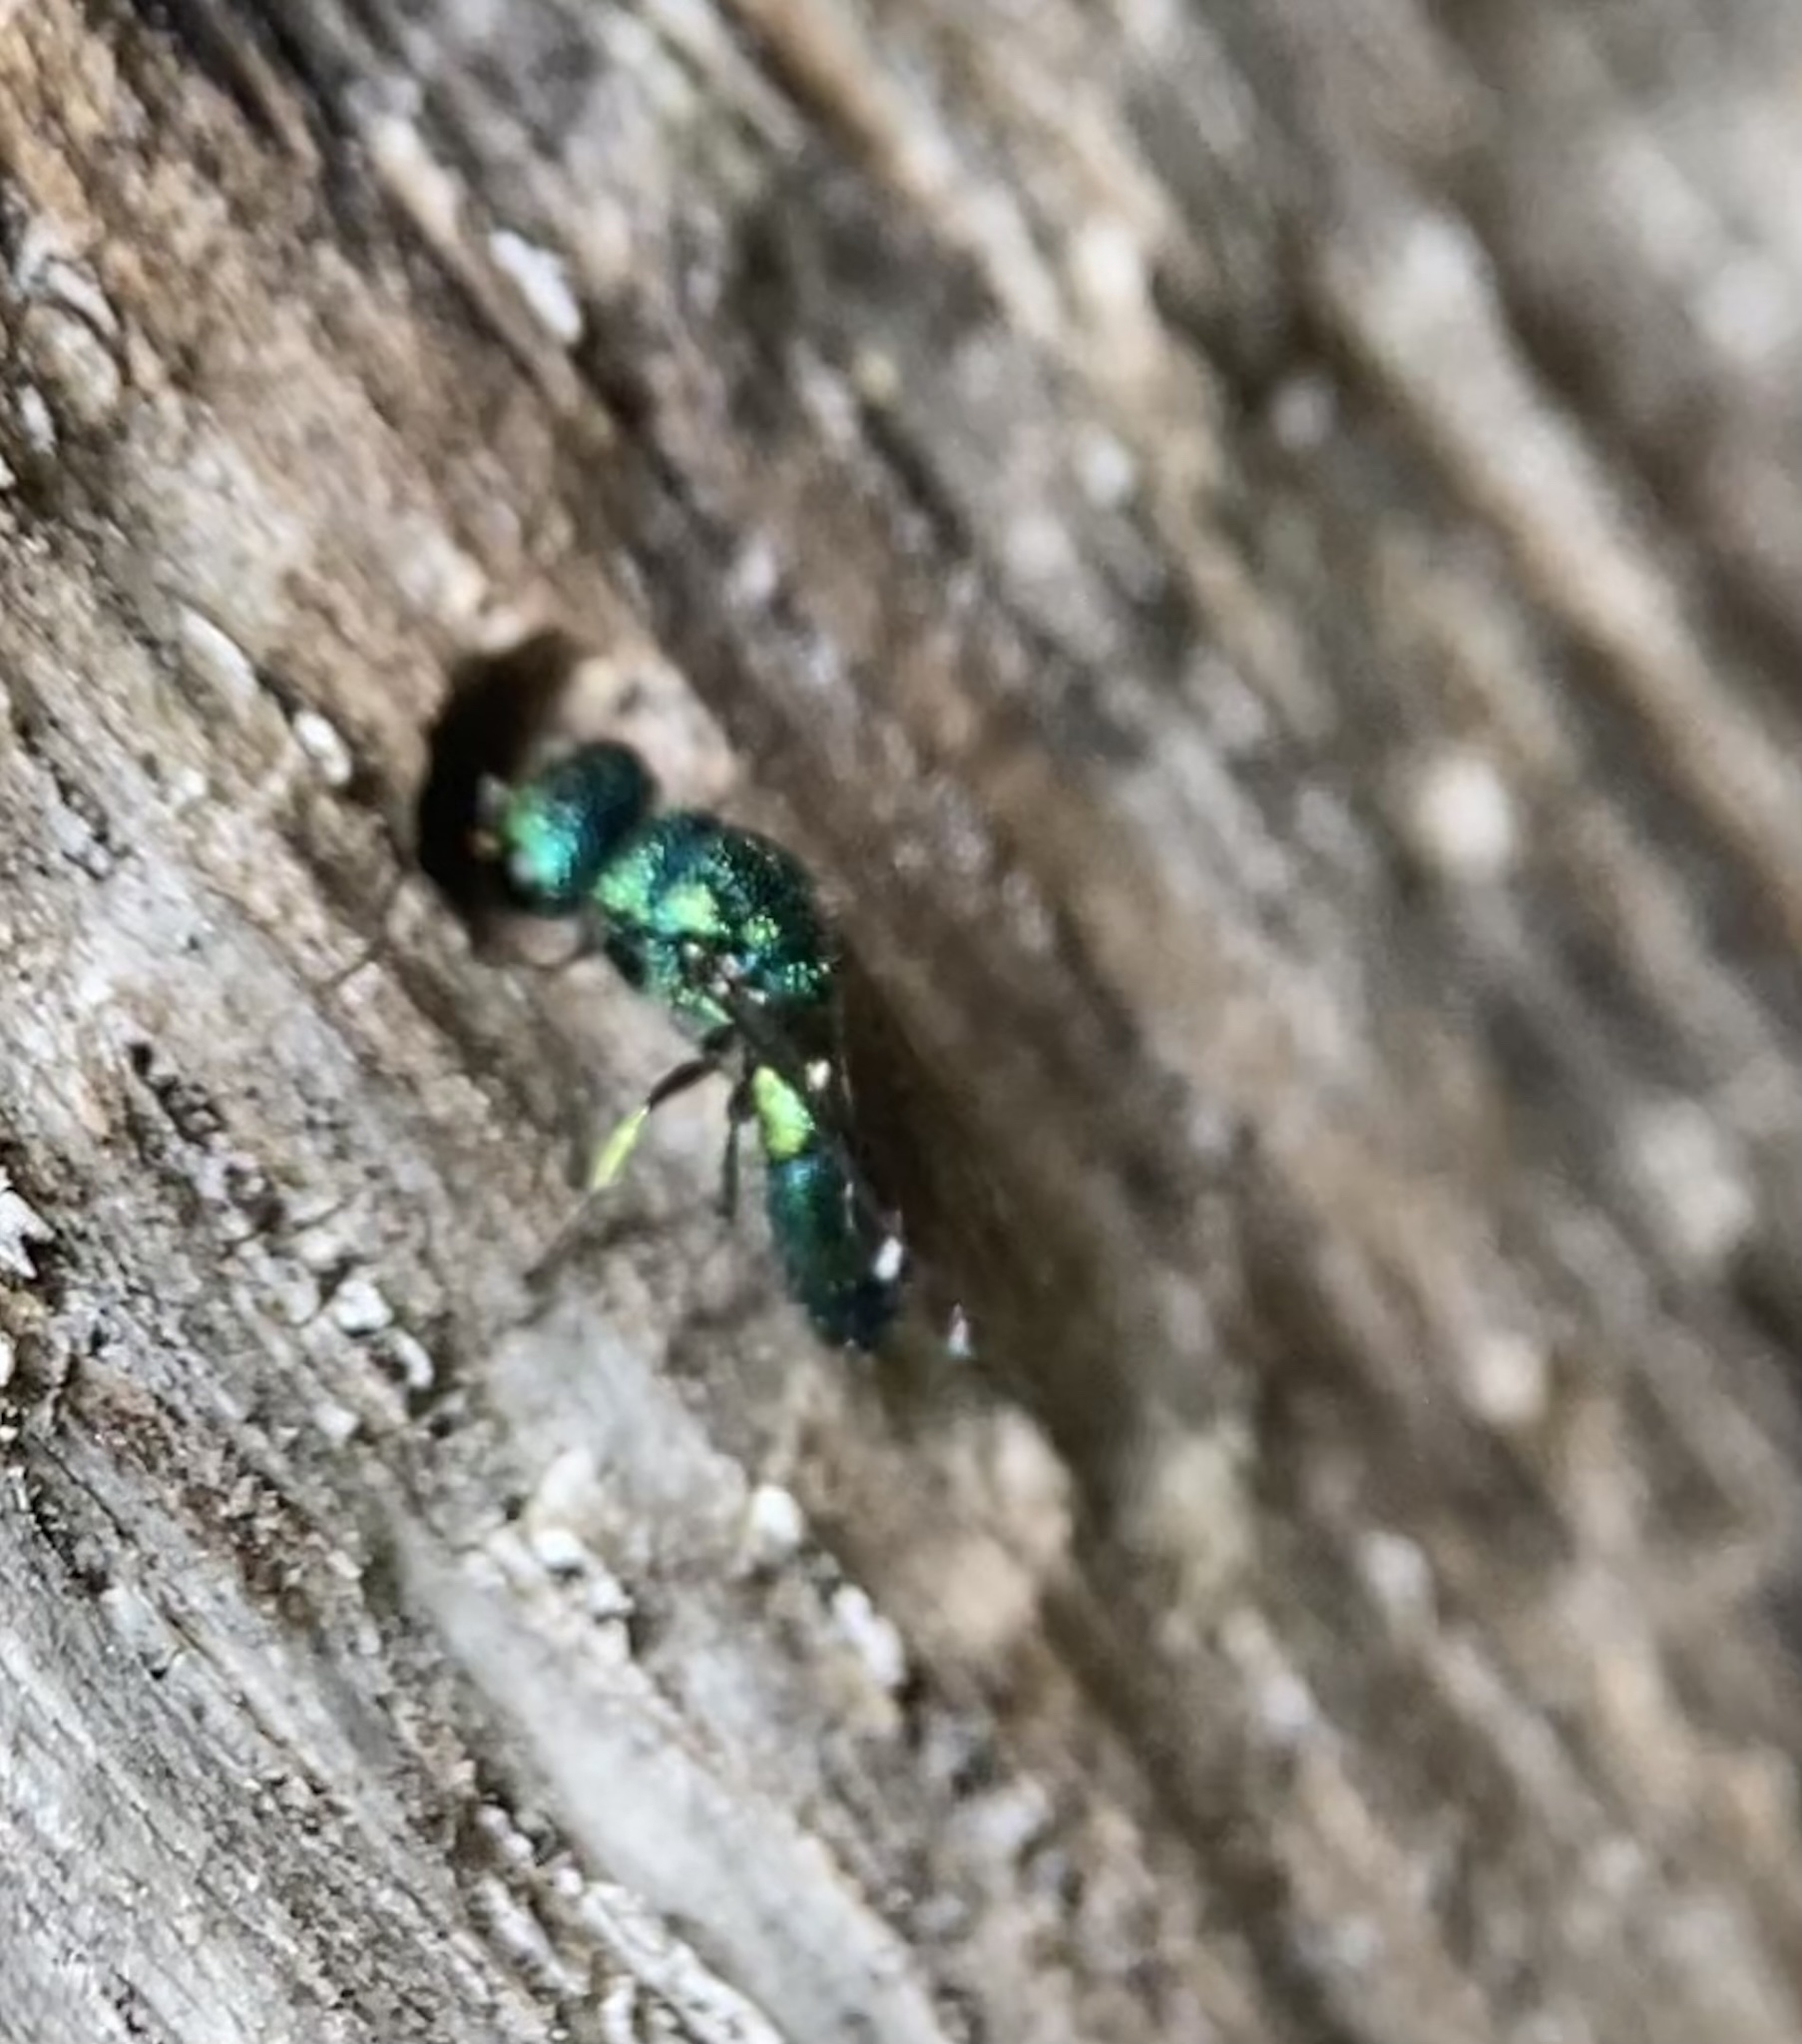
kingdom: Animalia
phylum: Arthropoda
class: Insecta
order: Hymenoptera
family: Pompilidae
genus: Pepsis
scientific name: Pepsis cyanea
